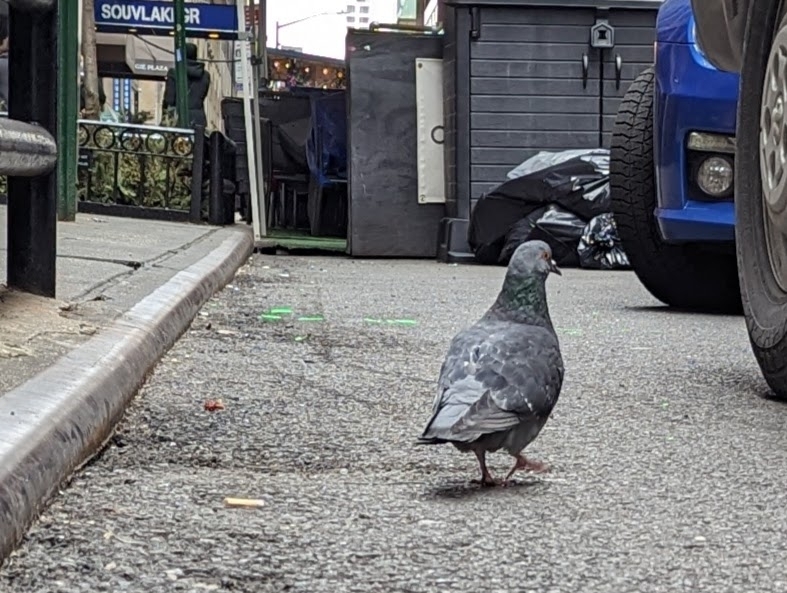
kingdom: Animalia
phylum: Chordata
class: Aves
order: Columbiformes
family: Columbidae
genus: Columba
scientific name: Columba livia
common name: Rock pigeon
